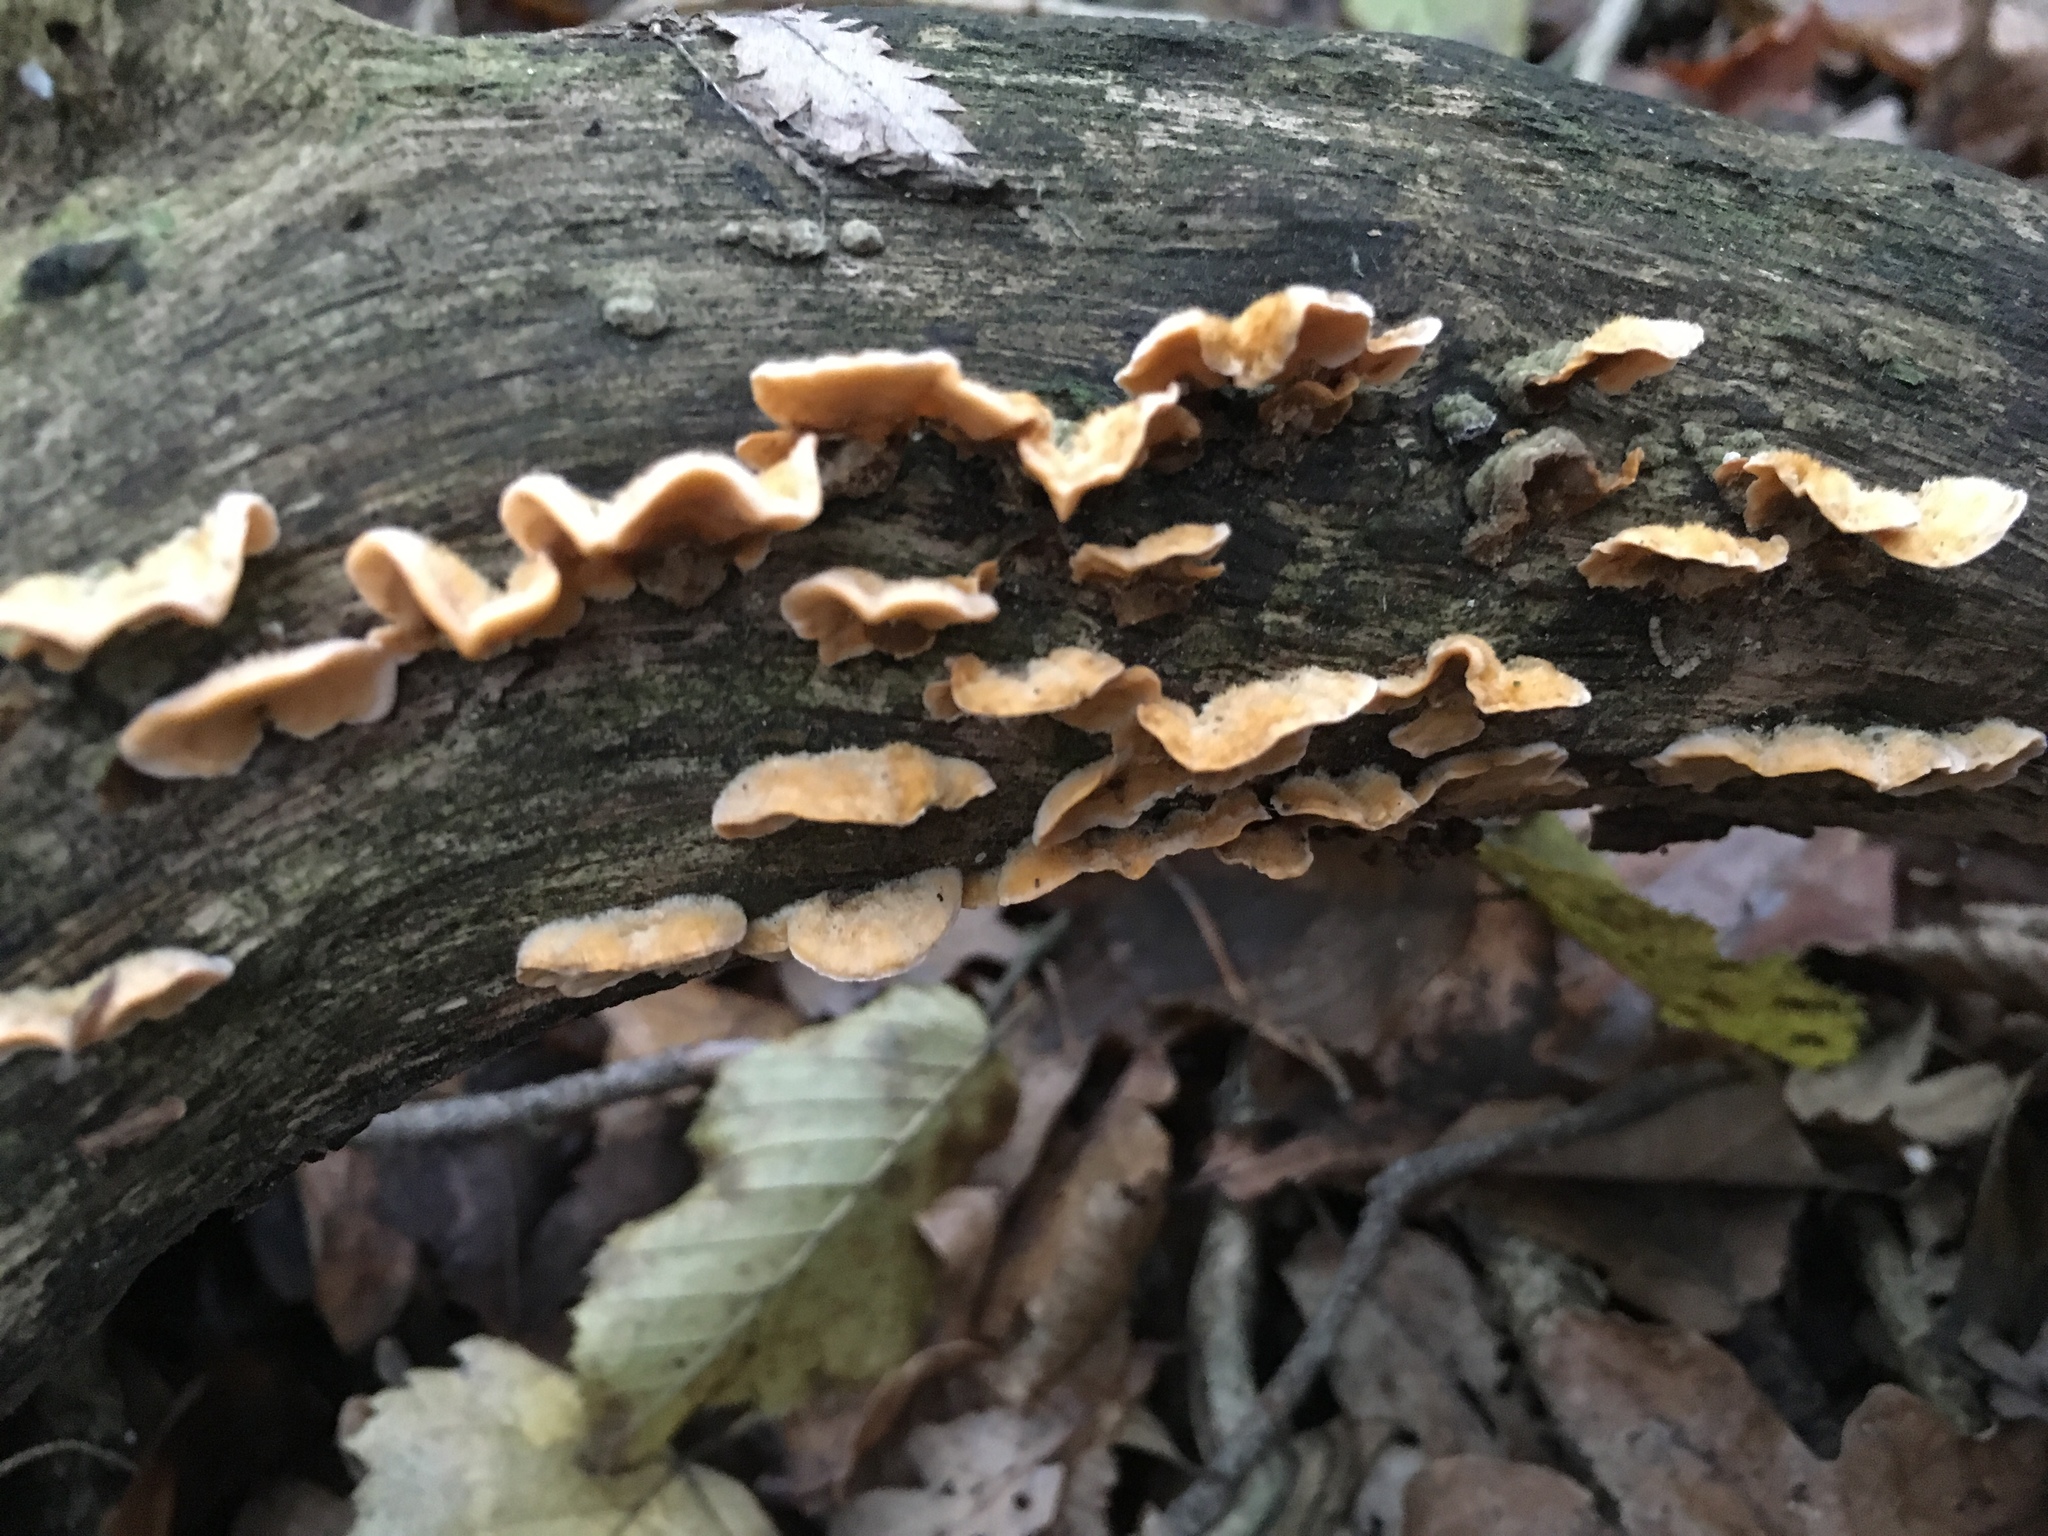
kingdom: Fungi
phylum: Basidiomycota
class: Agaricomycetes
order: Russulales
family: Stereaceae
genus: Stereum
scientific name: Stereum hirsutum
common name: Hairy curtain crust
